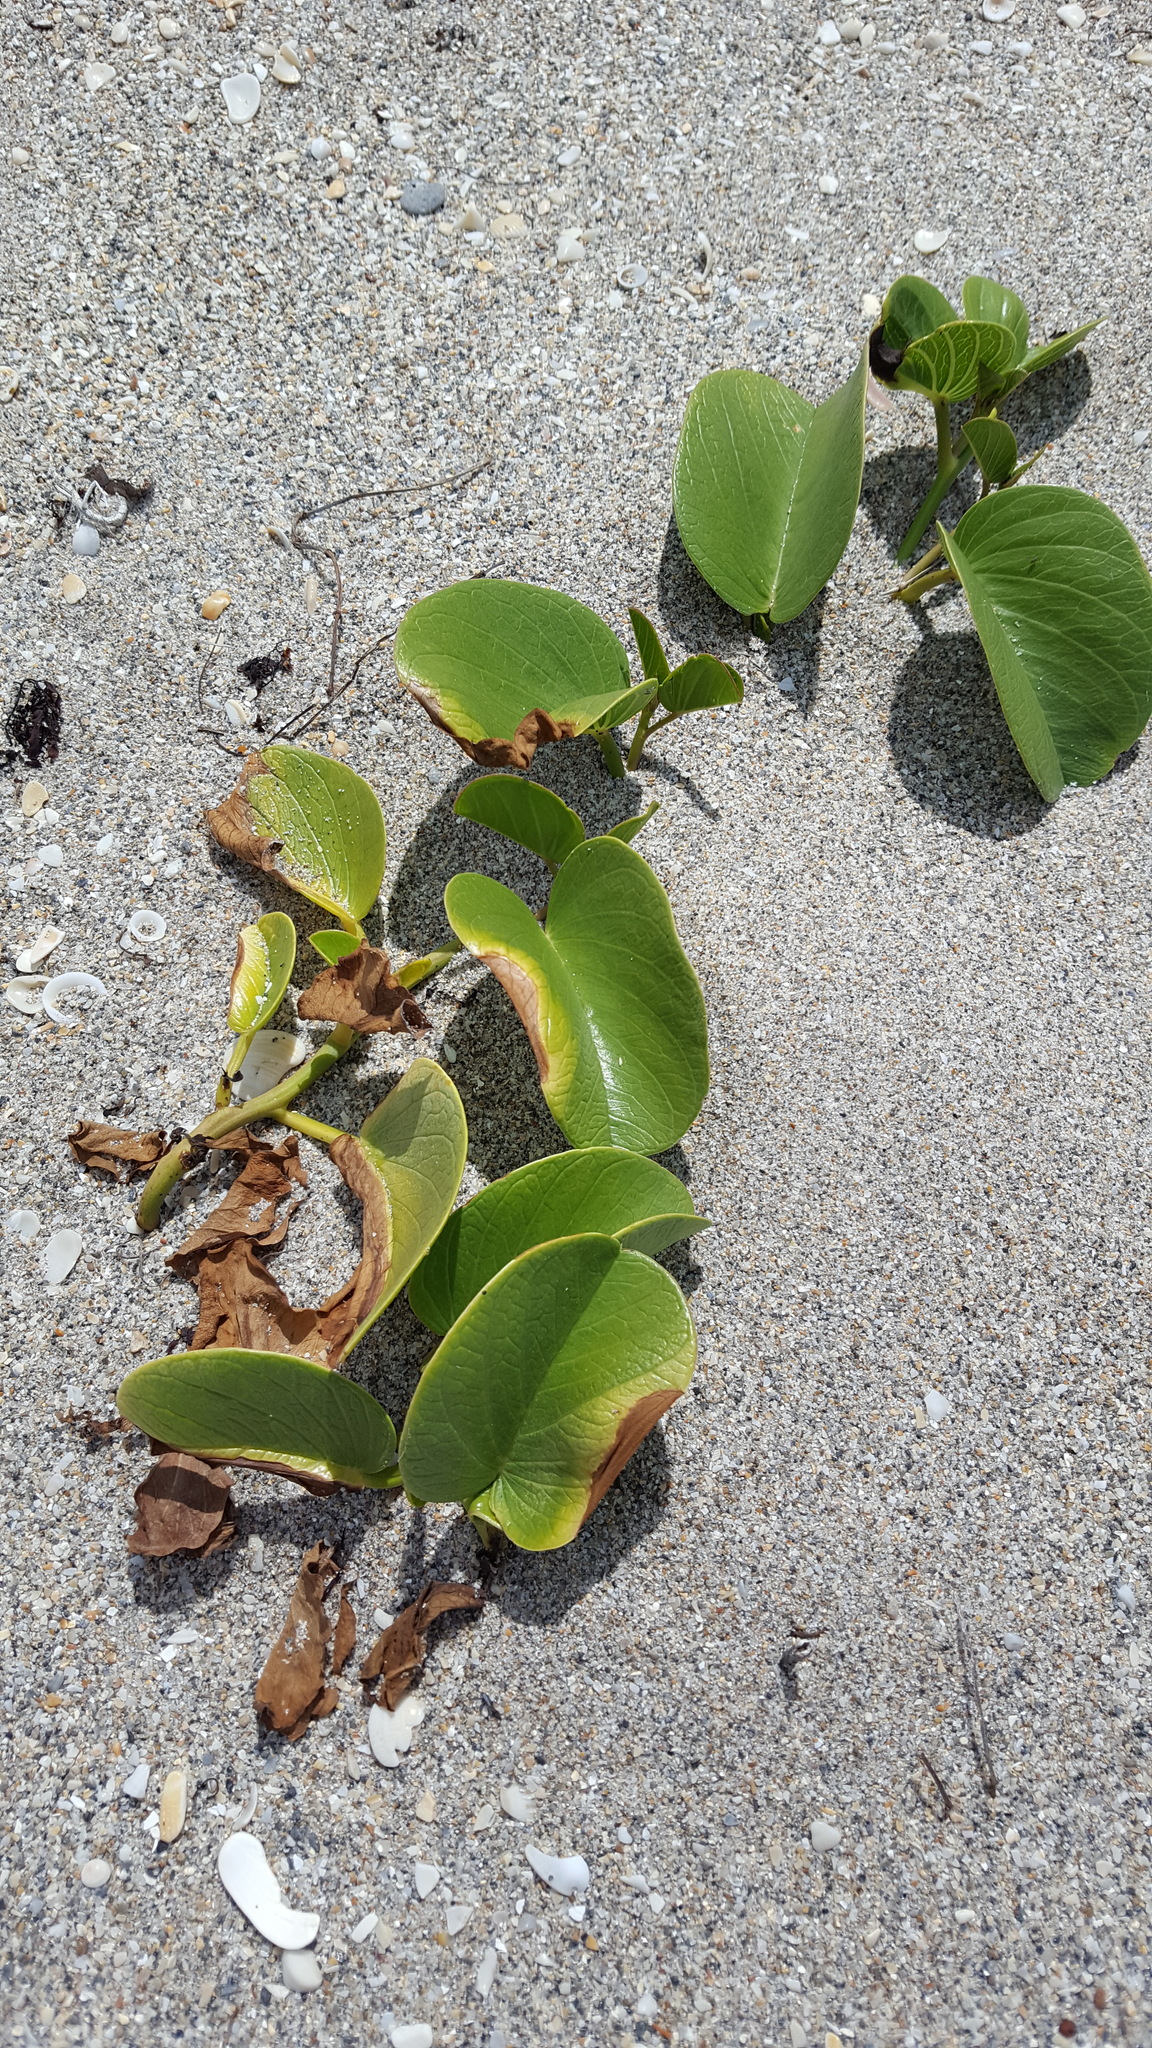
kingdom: Plantae
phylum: Tracheophyta
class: Magnoliopsida
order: Solanales
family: Convolvulaceae
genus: Ipomoea
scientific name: Ipomoea pes-caprae
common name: Beach morning glory
